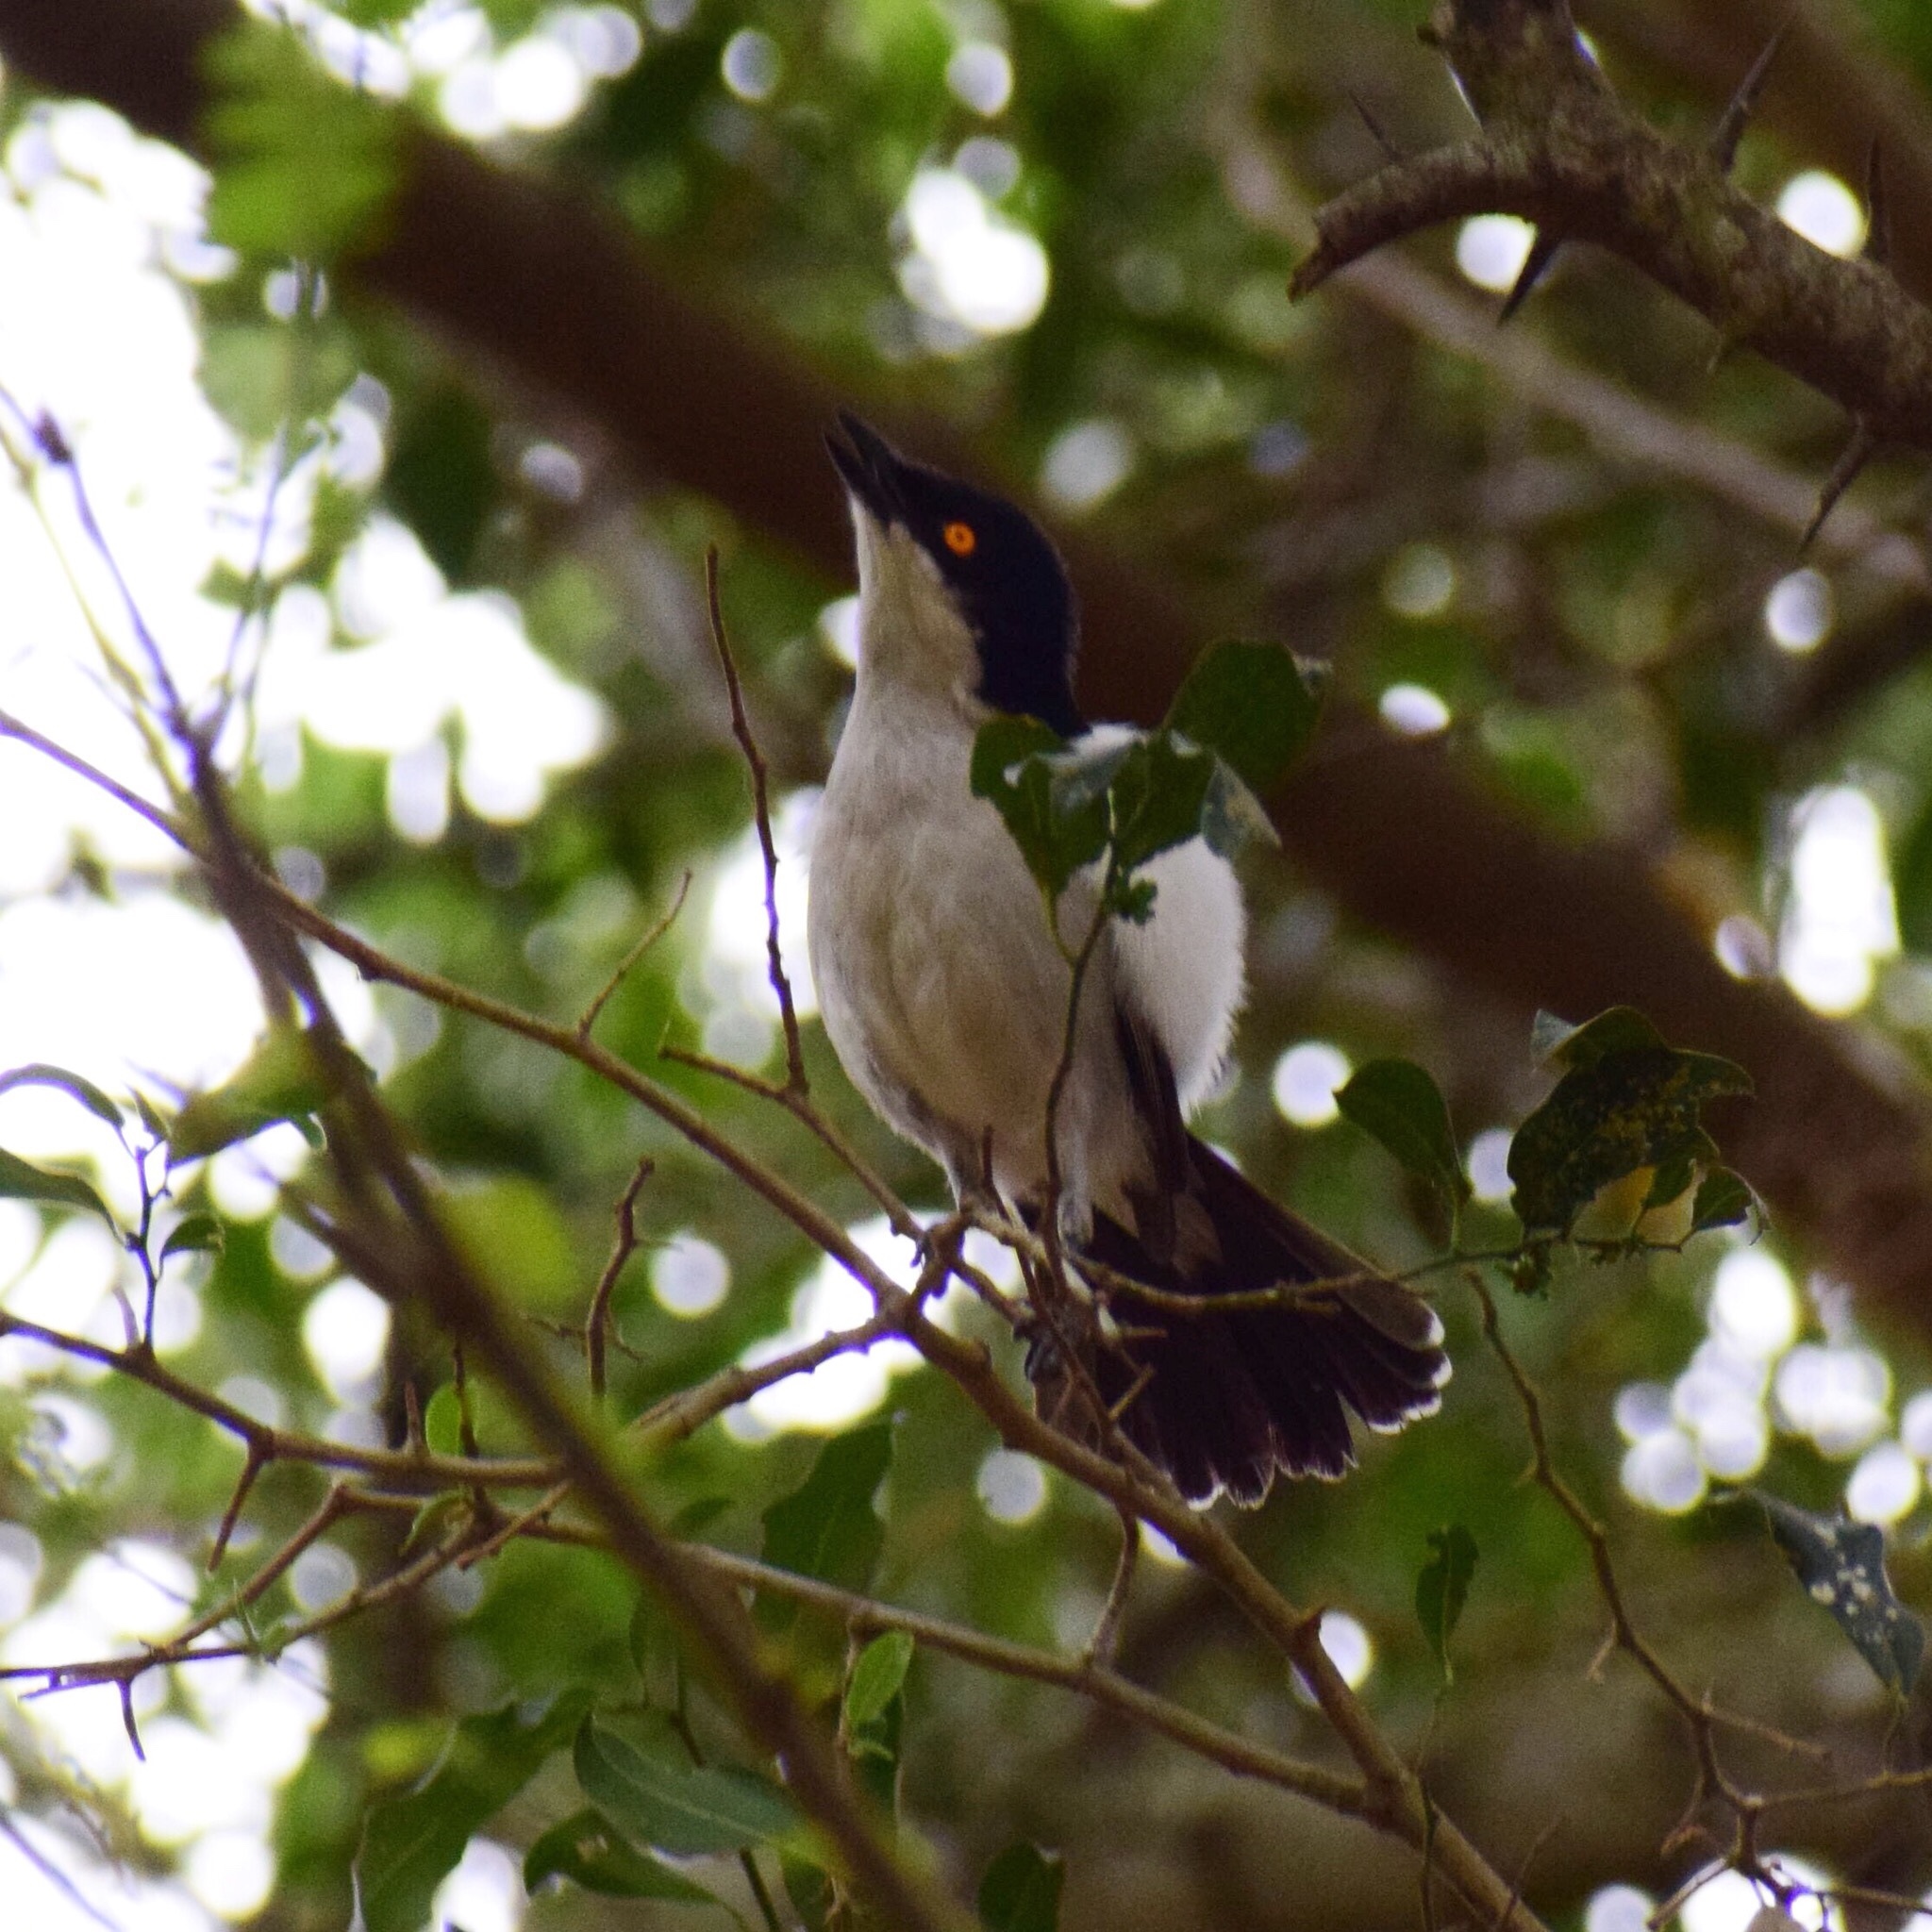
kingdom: Animalia
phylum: Chordata
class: Aves
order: Passeriformes
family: Malaconotidae
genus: Dryoscopus
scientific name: Dryoscopus cubla
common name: Black-backed puffback
